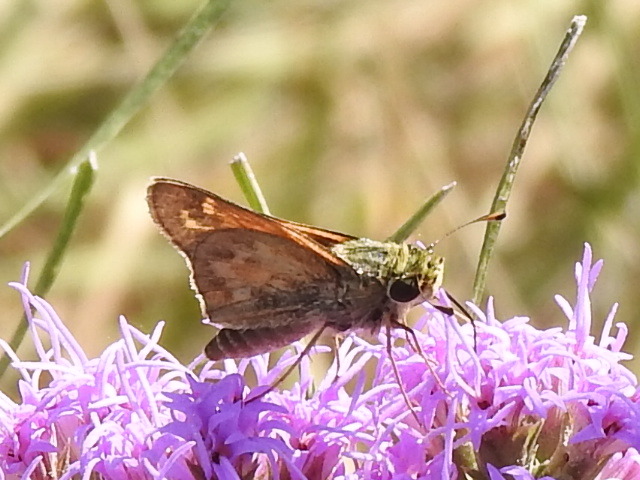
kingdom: Animalia
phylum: Arthropoda
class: Insecta
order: Lepidoptera
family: Hesperiidae
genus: Atalopedes
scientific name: Atalopedes
